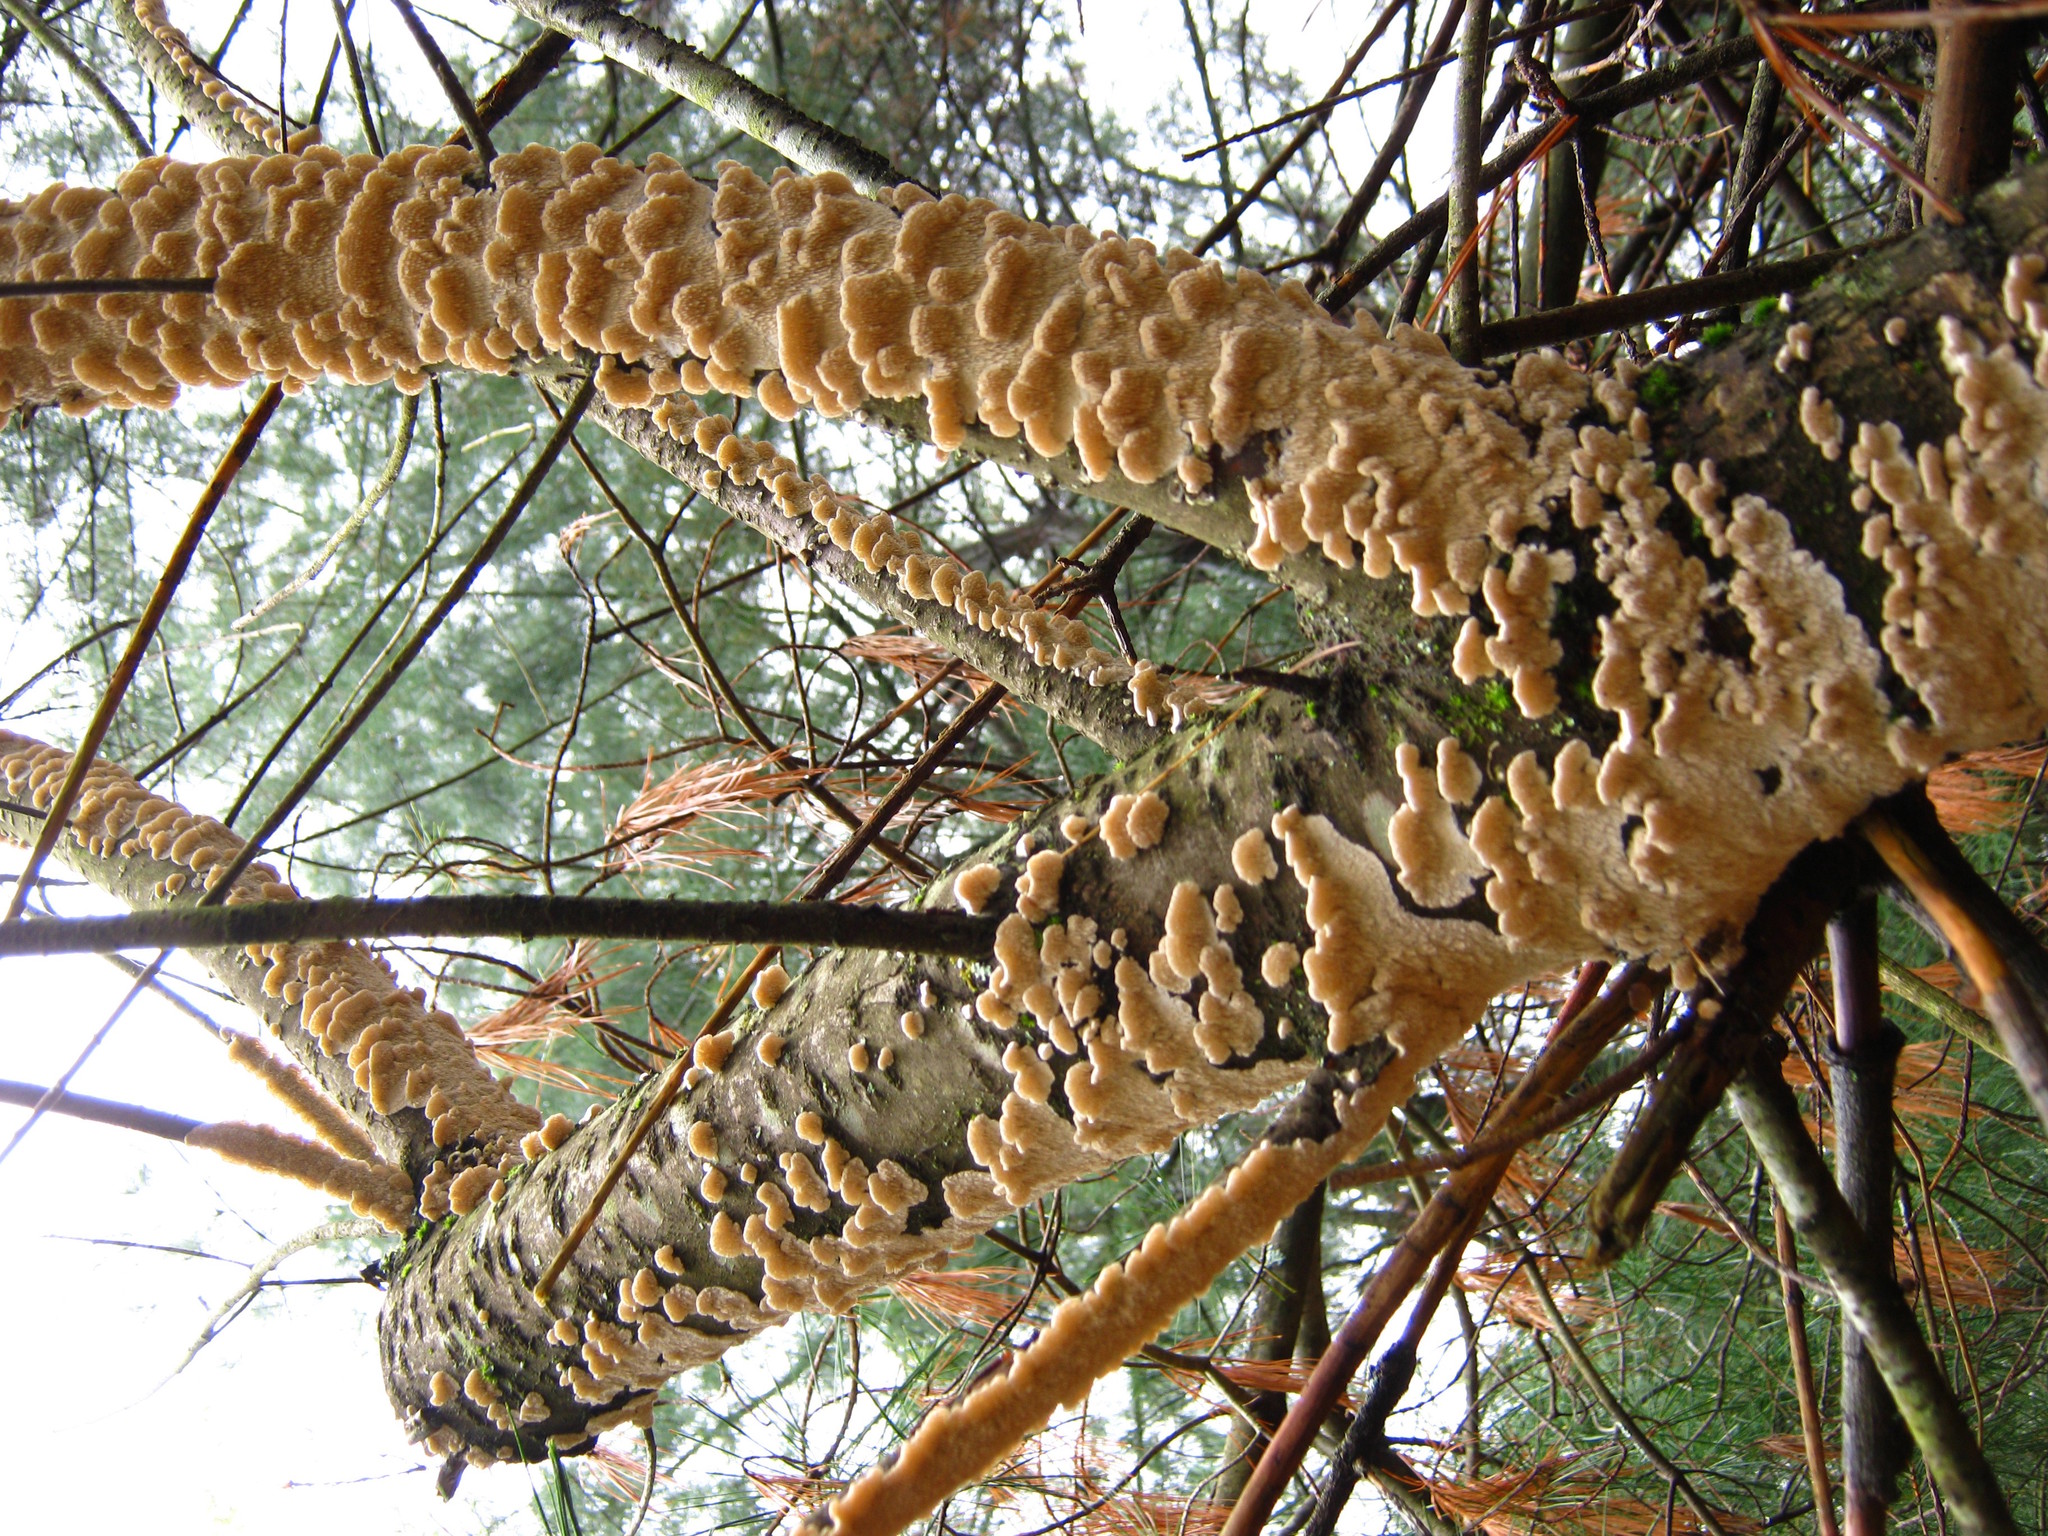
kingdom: Fungi
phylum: Basidiomycota
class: Agaricomycetes
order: Polyporales
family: Irpicaceae
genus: Irpex
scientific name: Irpex lacteus
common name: Milk-white toothed polypore
